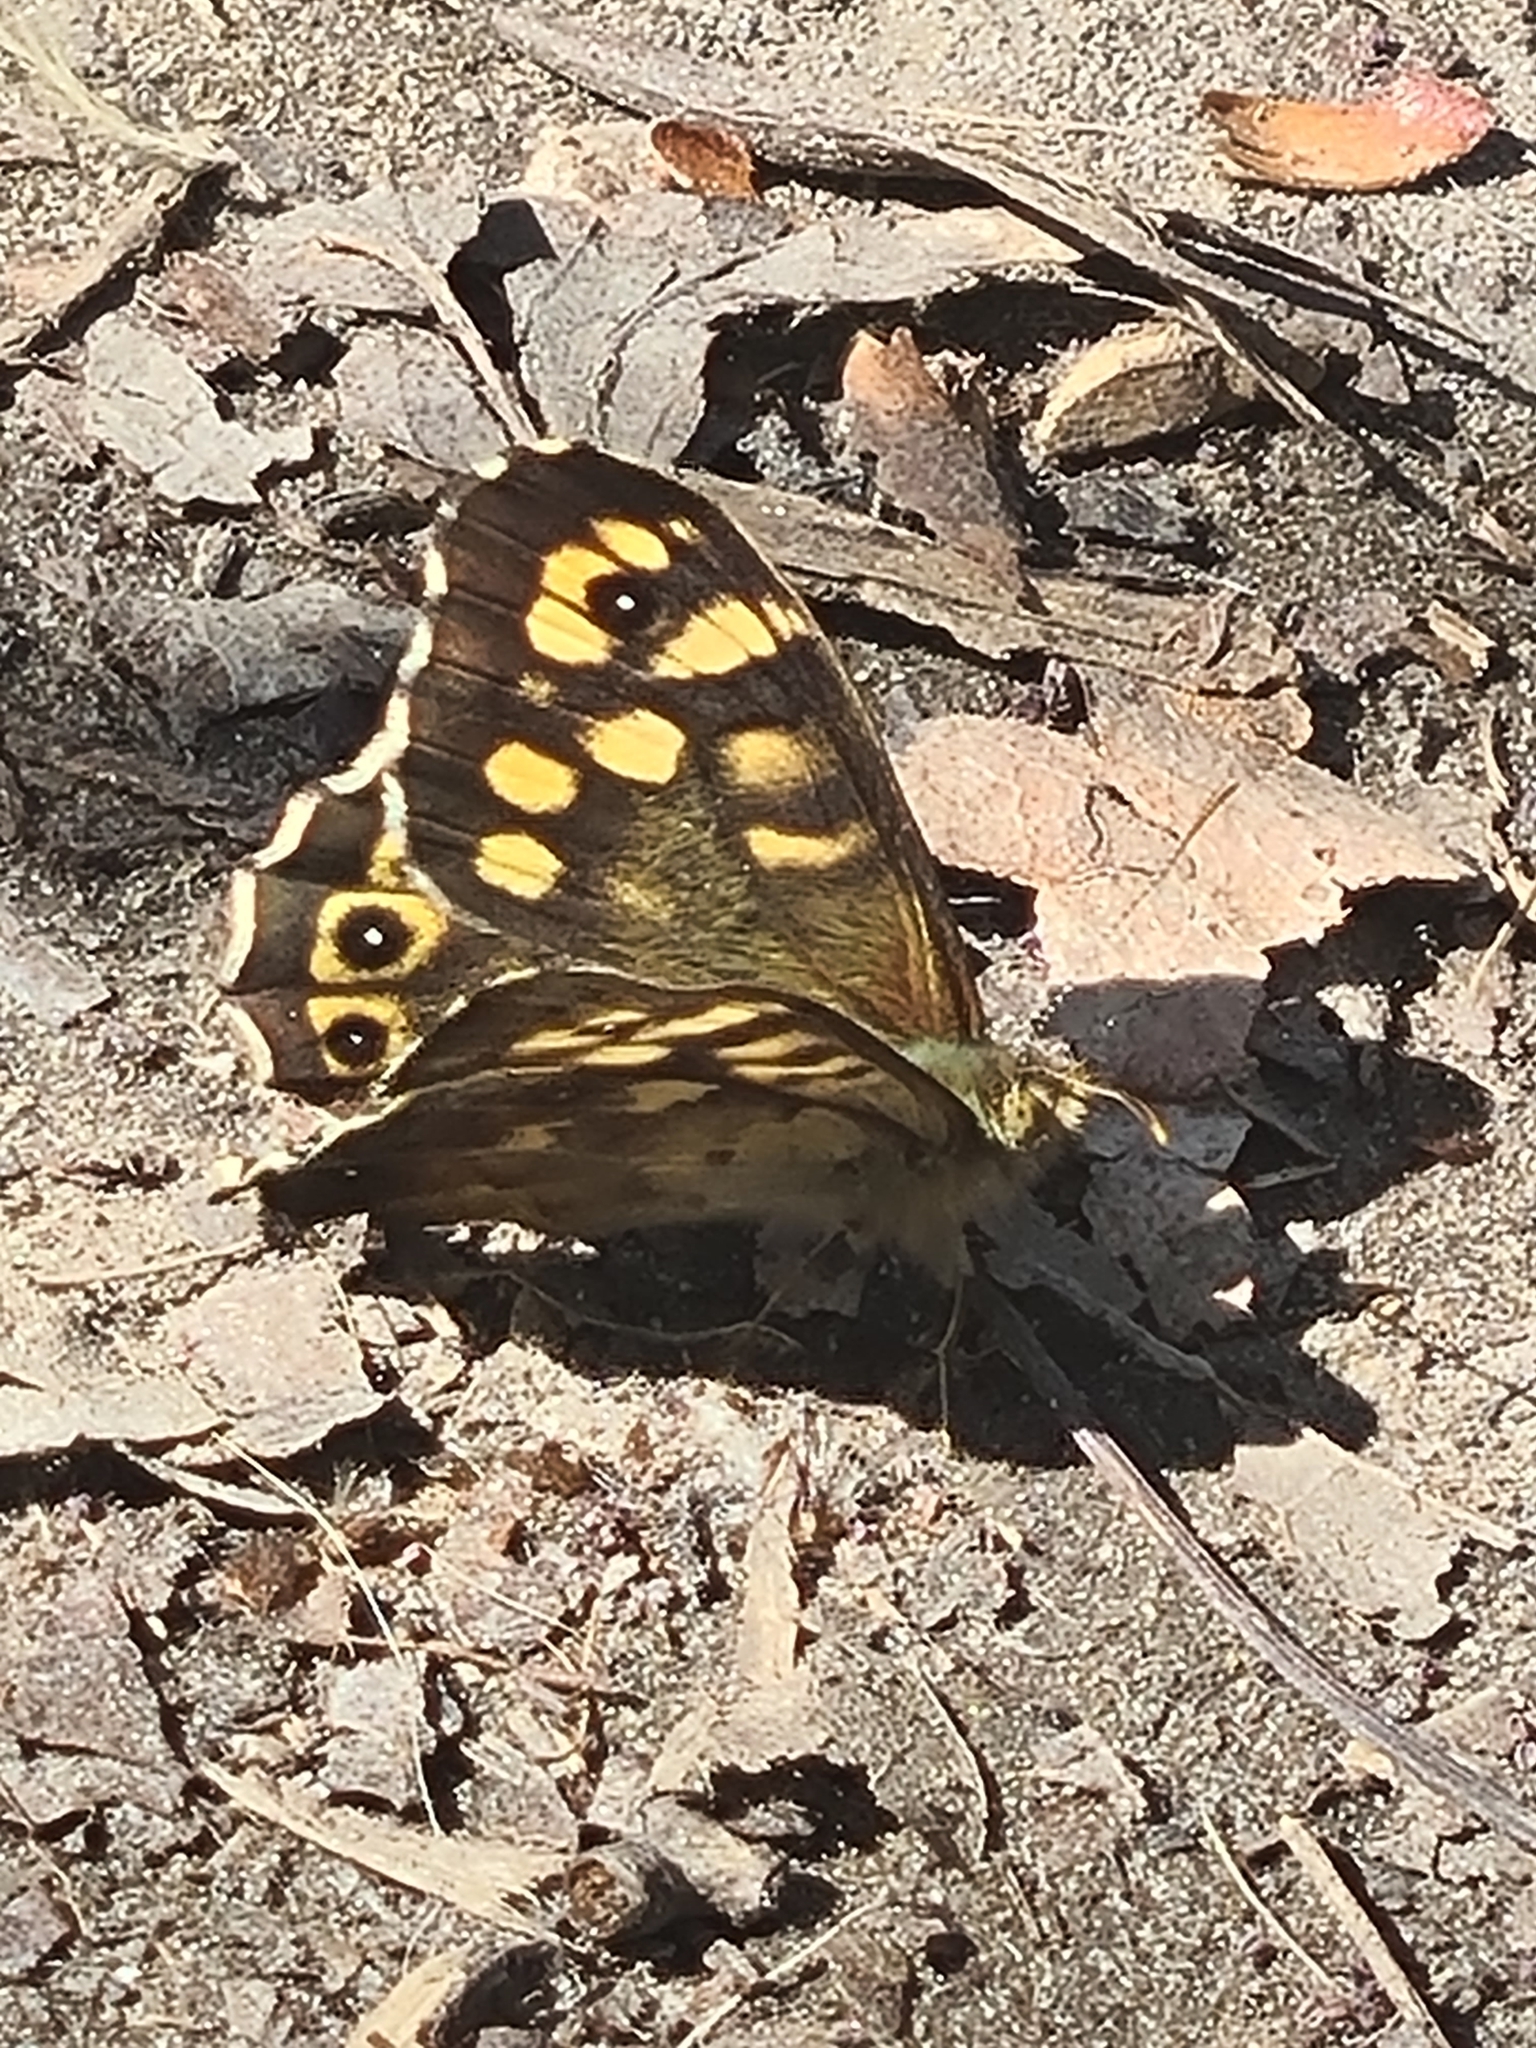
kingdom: Animalia
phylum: Arthropoda
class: Insecta
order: Lepidoptera
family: Nymphalidae
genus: Pararge
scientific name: Pararge aegeria
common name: Speckled wood
